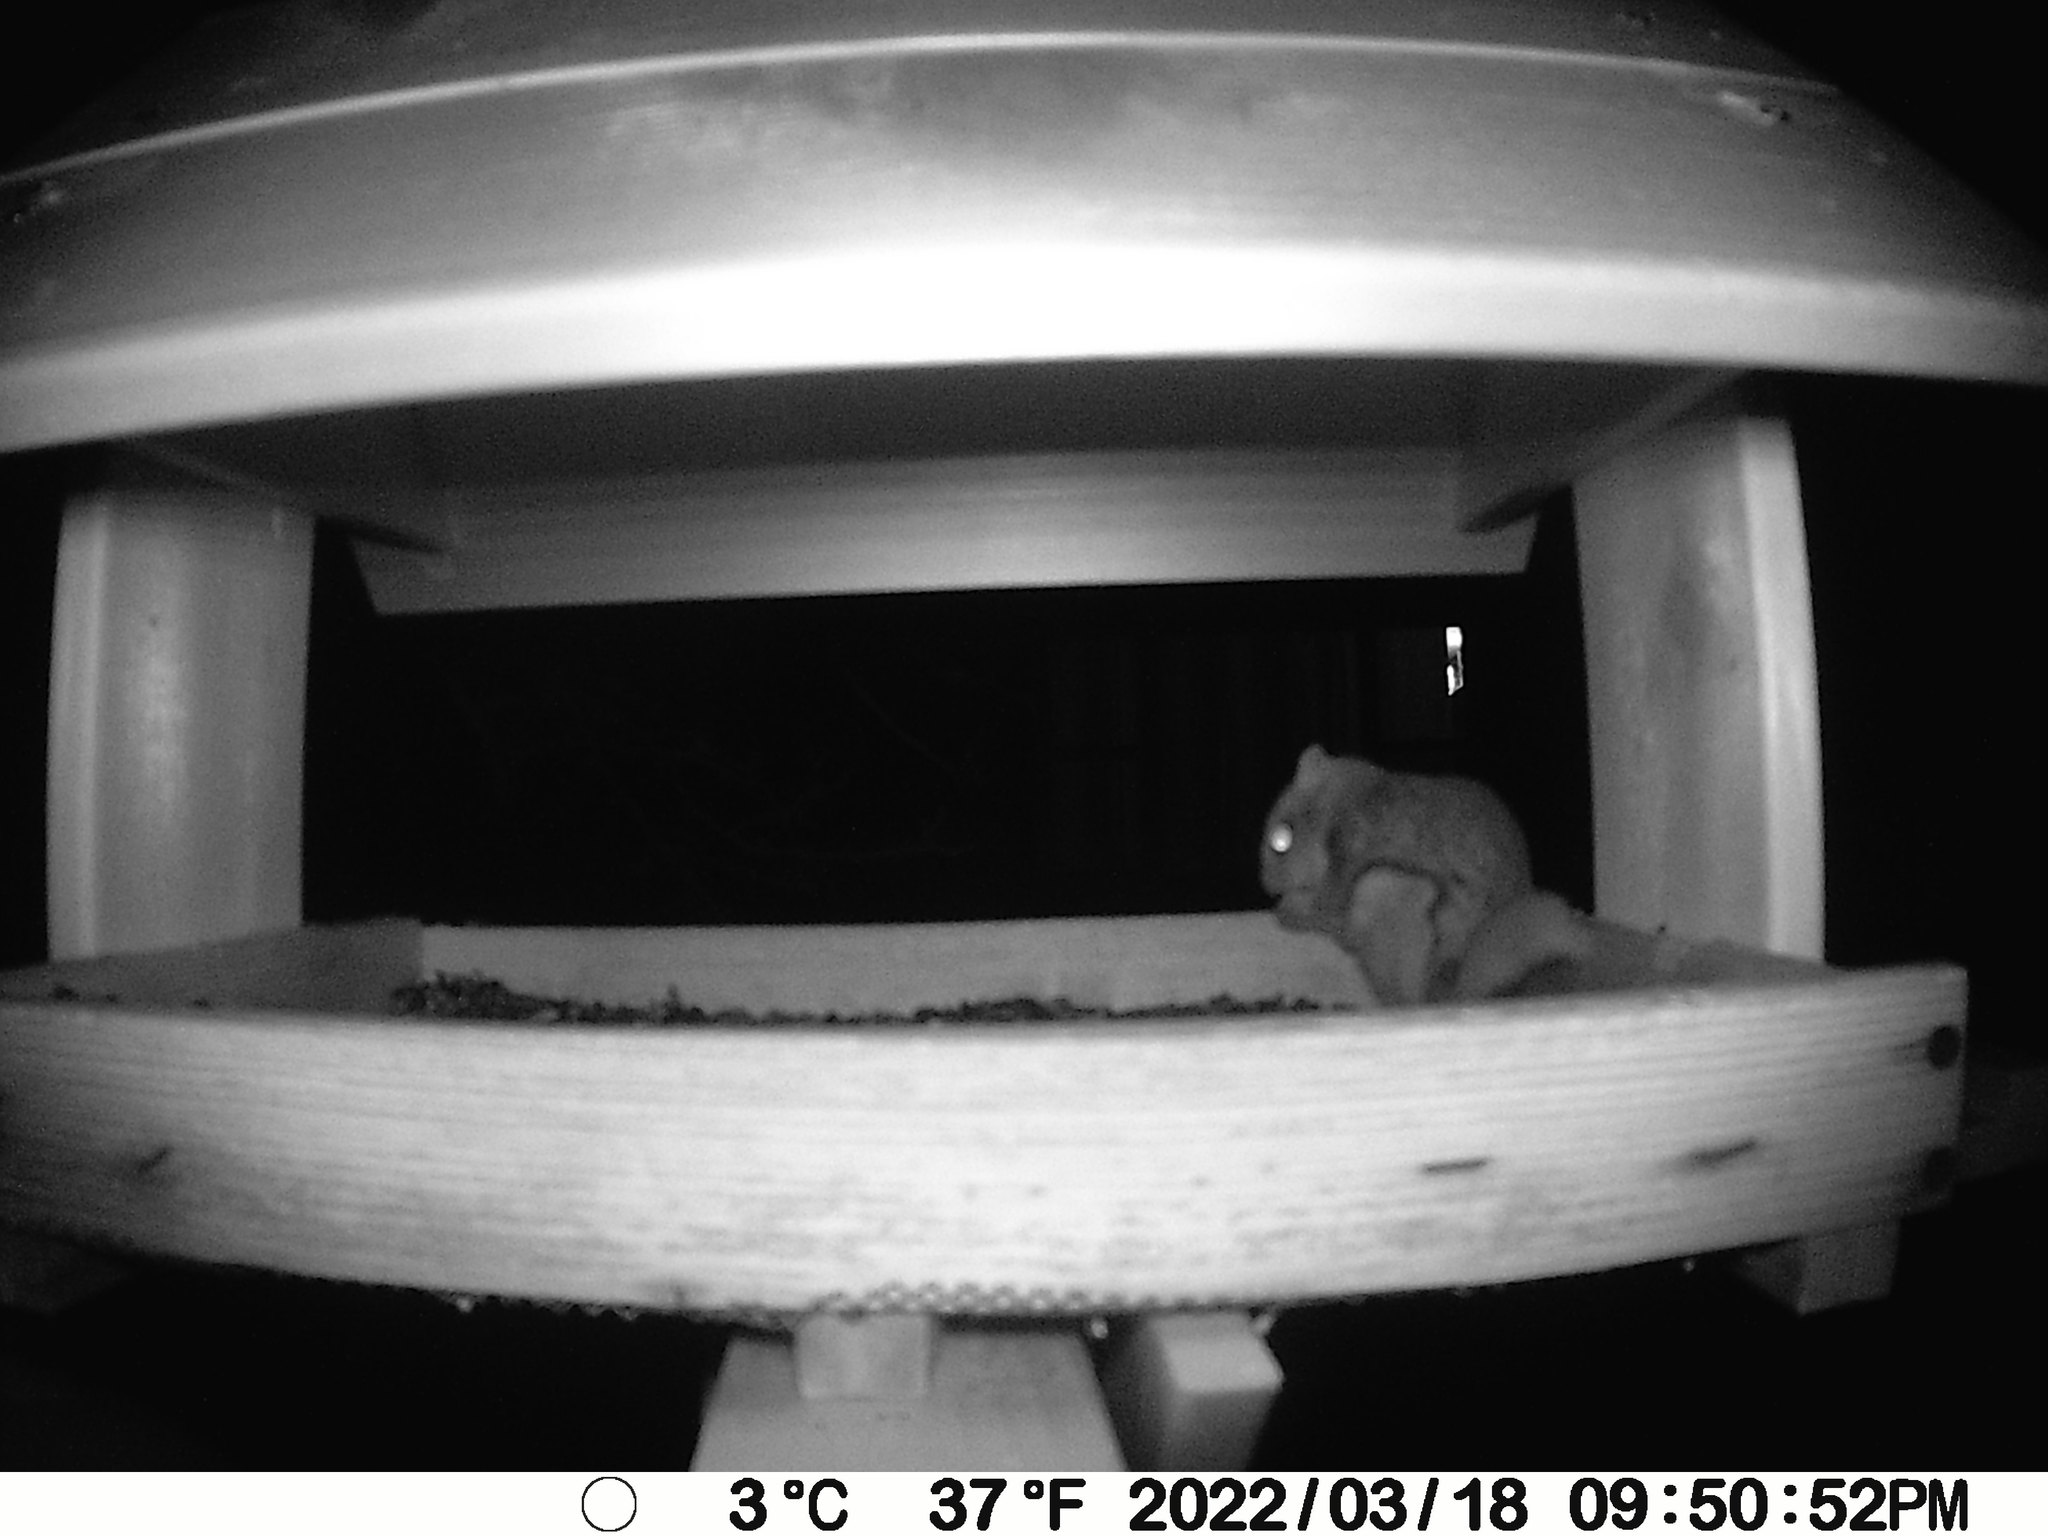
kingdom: Animalia
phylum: Chordata
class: Mammalia
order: Rodentia
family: Sciuridae
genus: Glaucomys
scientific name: Glaucomys sabrinus
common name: Northern flying squirrel
